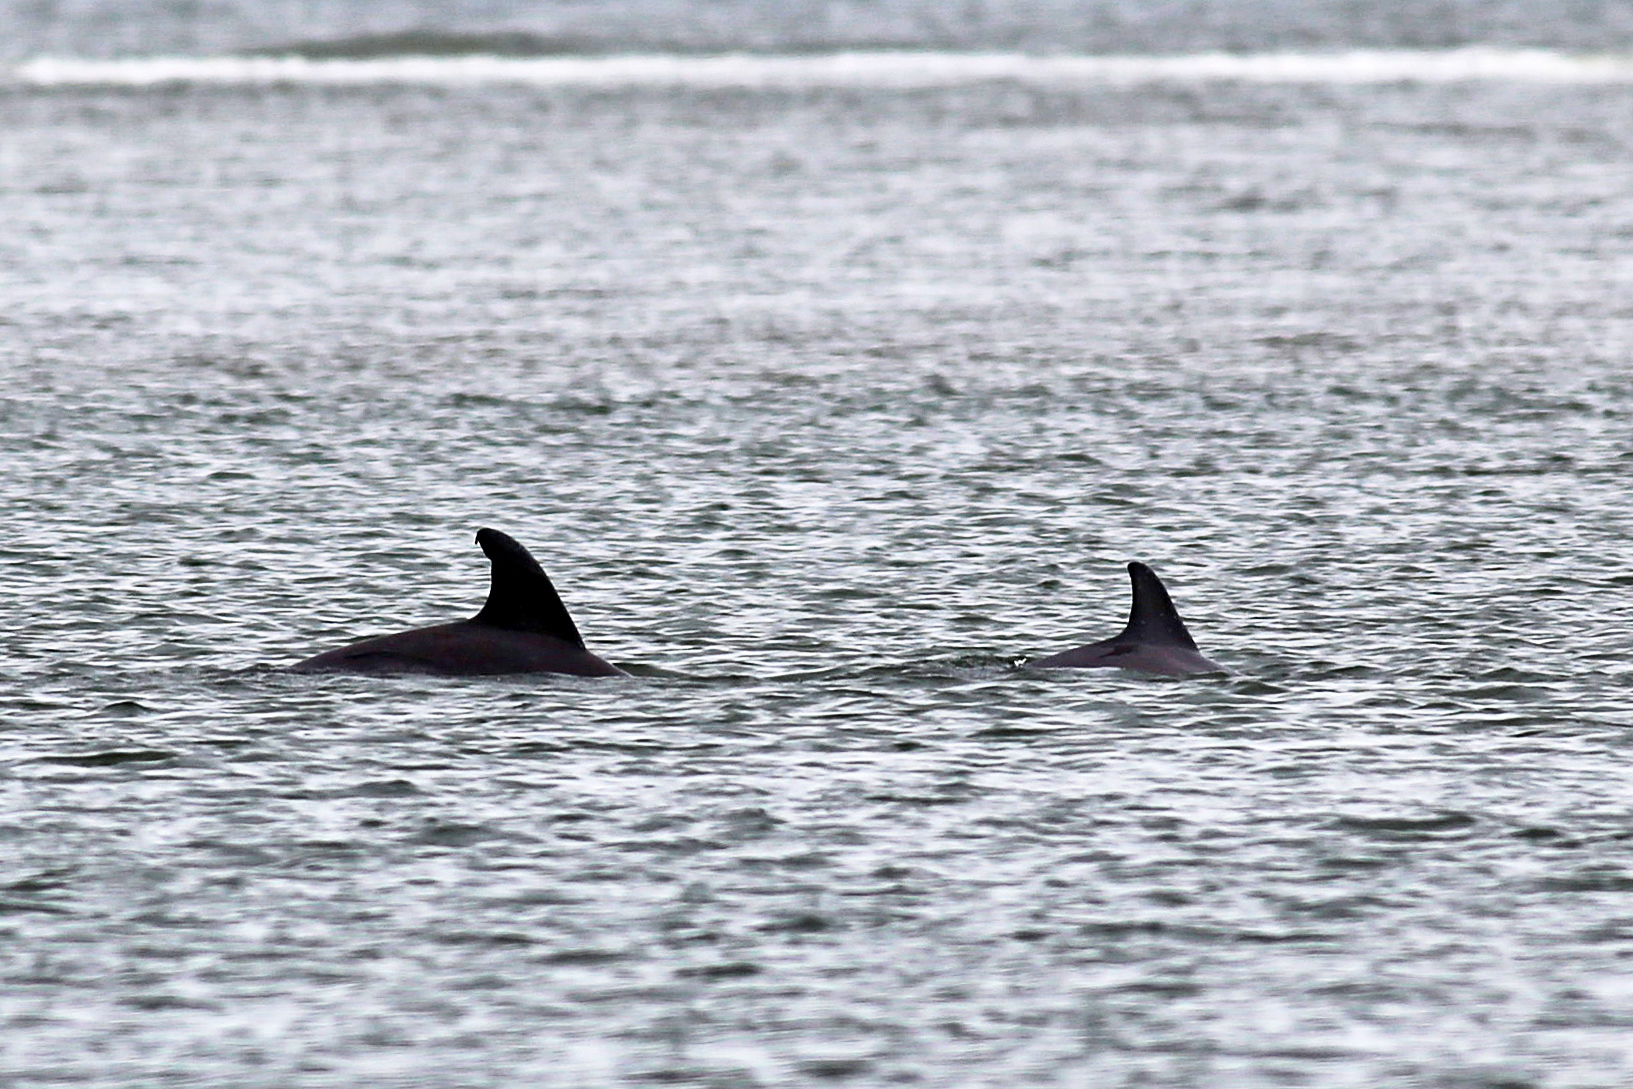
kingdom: Animalia
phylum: Chordata
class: Mammalia
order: Cetacea
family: Delphinidae
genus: Tursiops
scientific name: Tursiops truncatus
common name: Bottlenose dolphin
